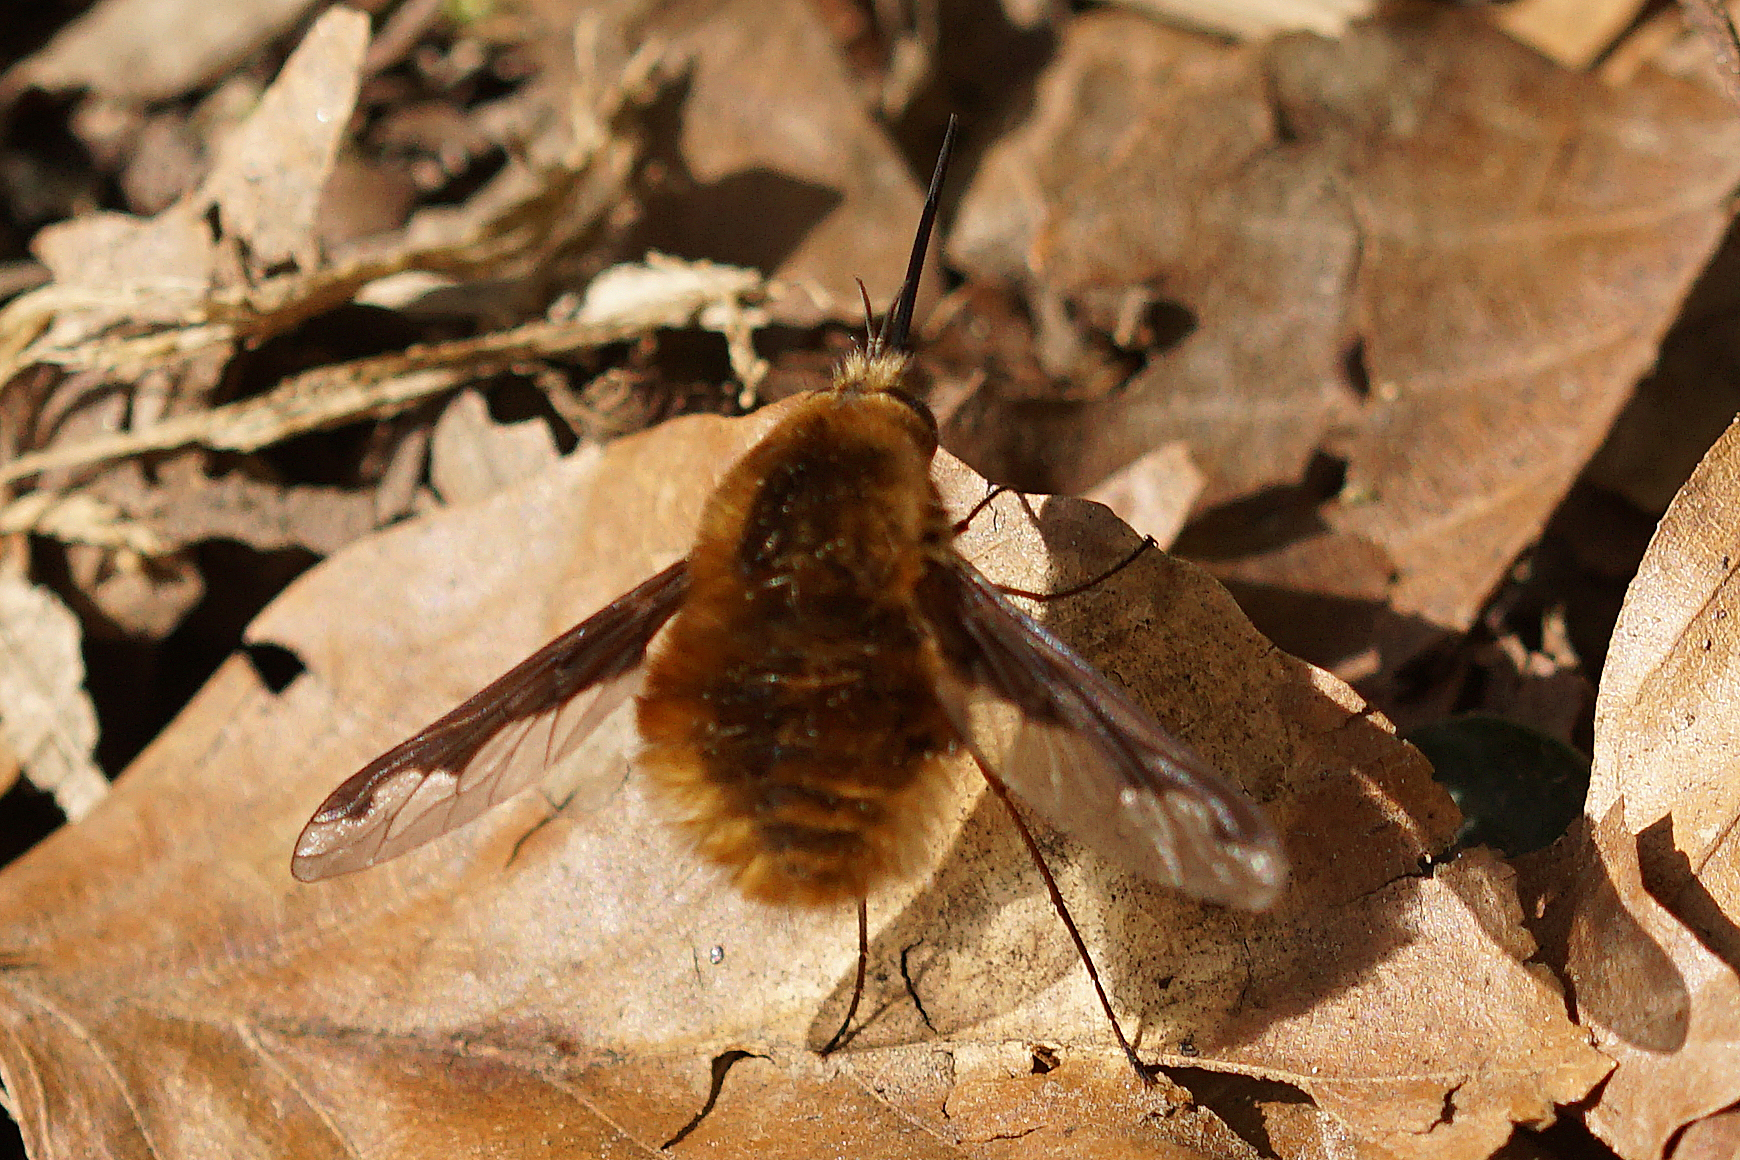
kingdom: Animalia
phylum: Arthropoda
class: Insecta
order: Diptera
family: Bombyliidae
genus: Bombylius
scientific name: Bombylius major
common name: Bee fly
